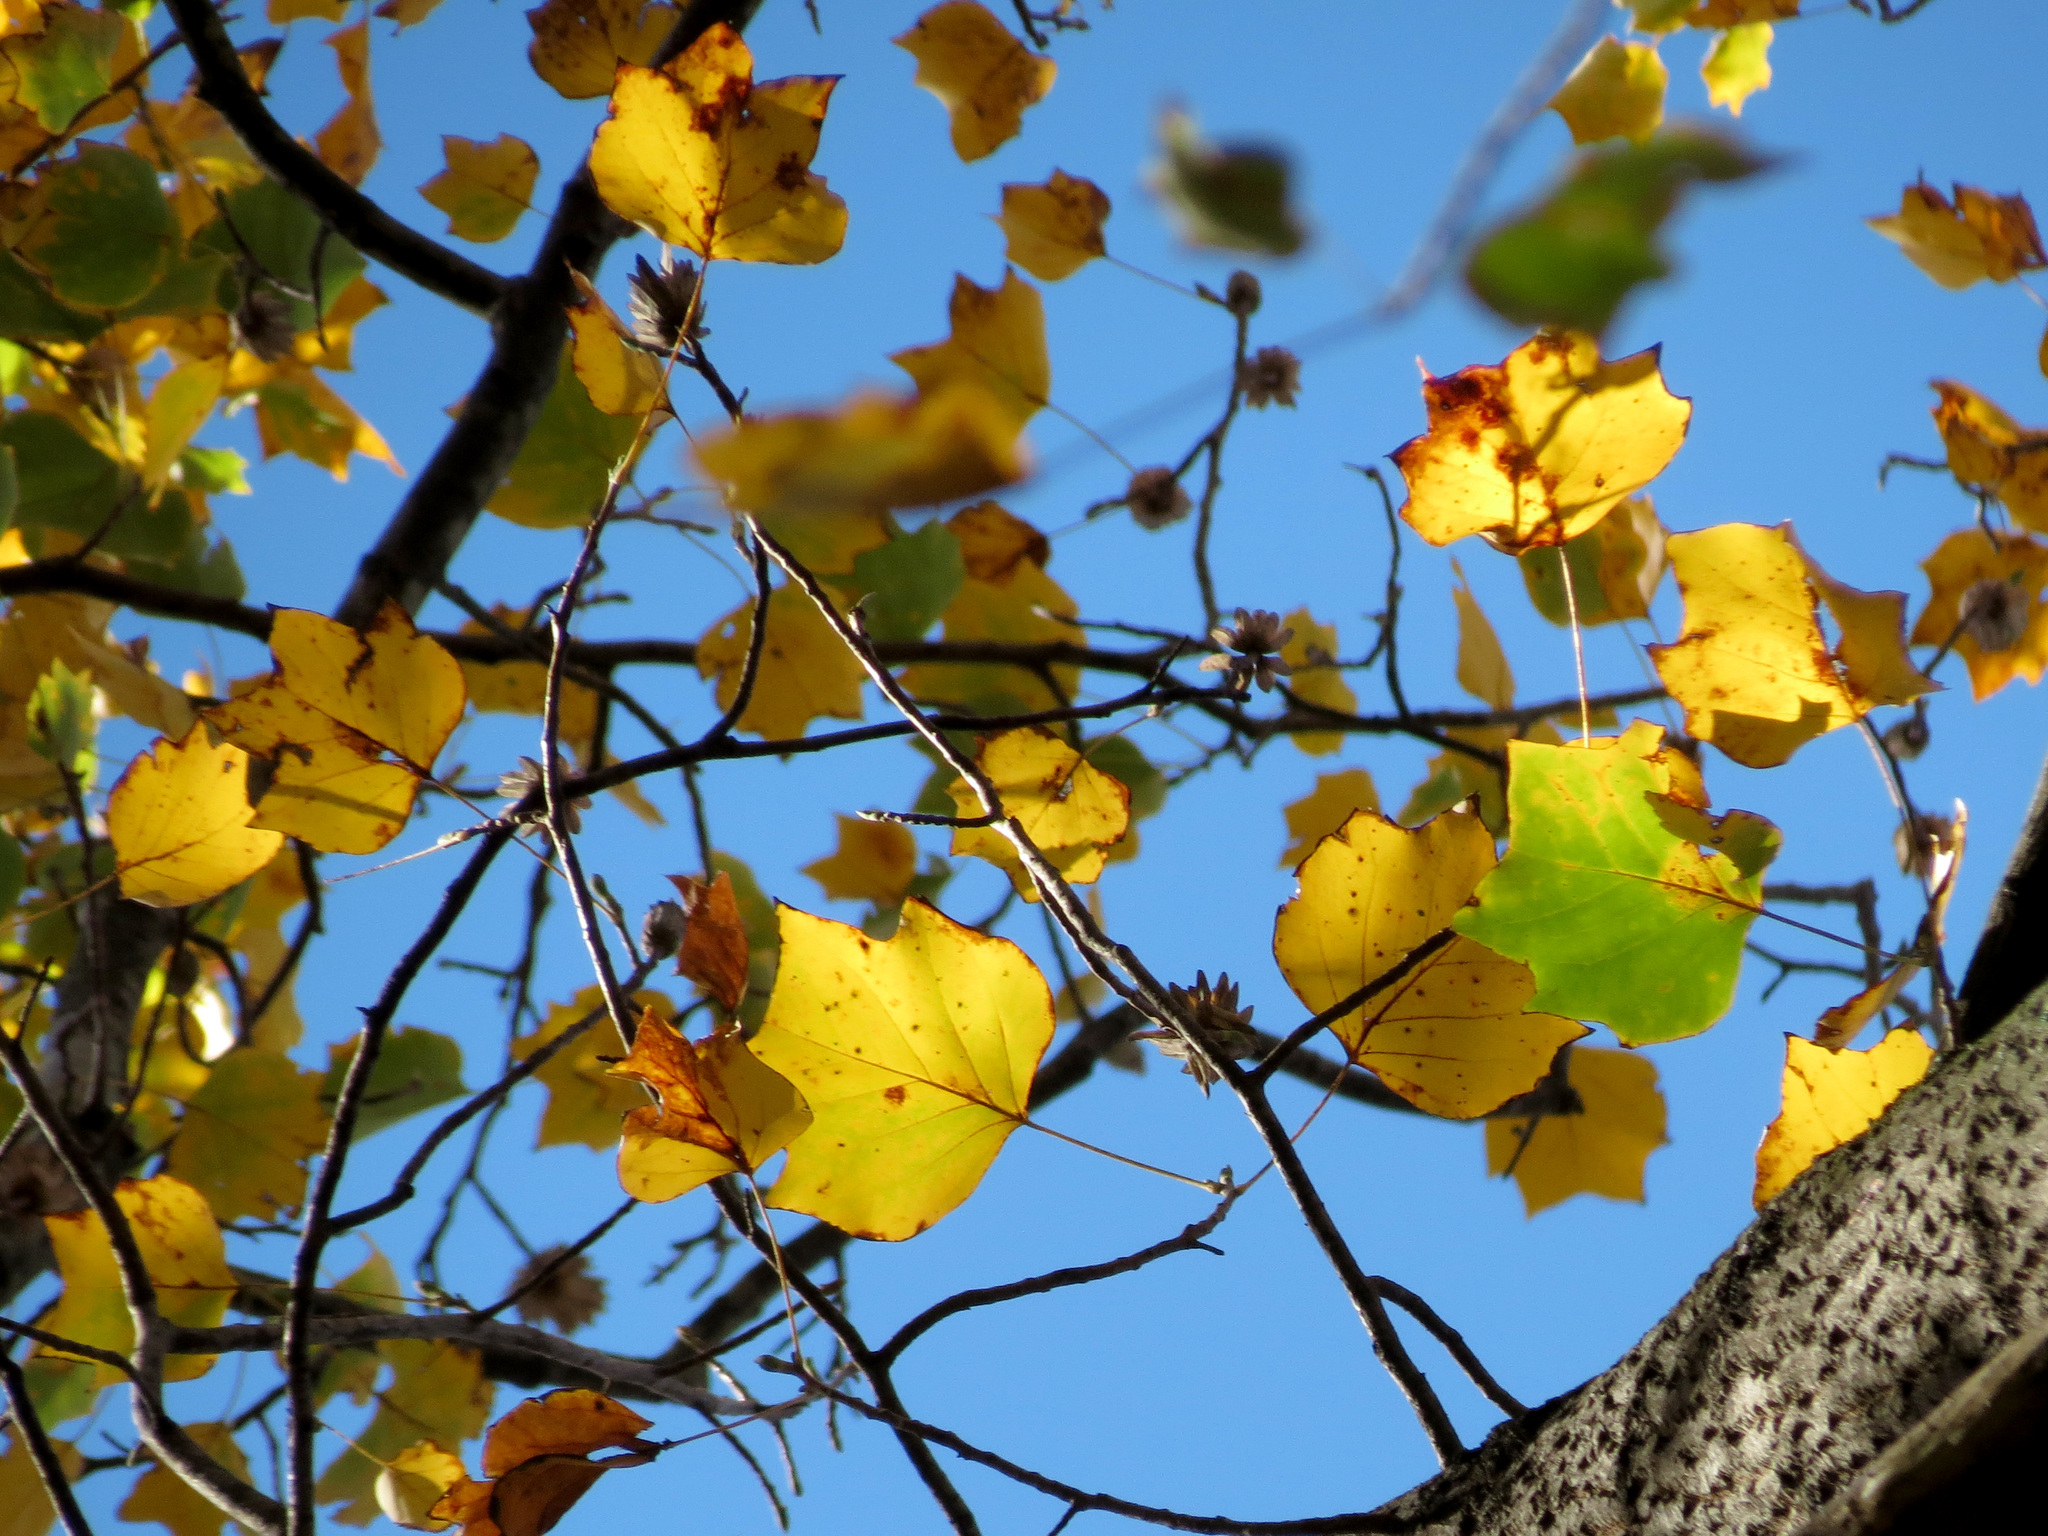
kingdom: Plantae
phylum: Tracheophyta
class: Magnoliopsida
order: Magnoliales
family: Magnoliaceae
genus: Liriodendron
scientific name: Liriodendron tulipifera
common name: Tulip tree
